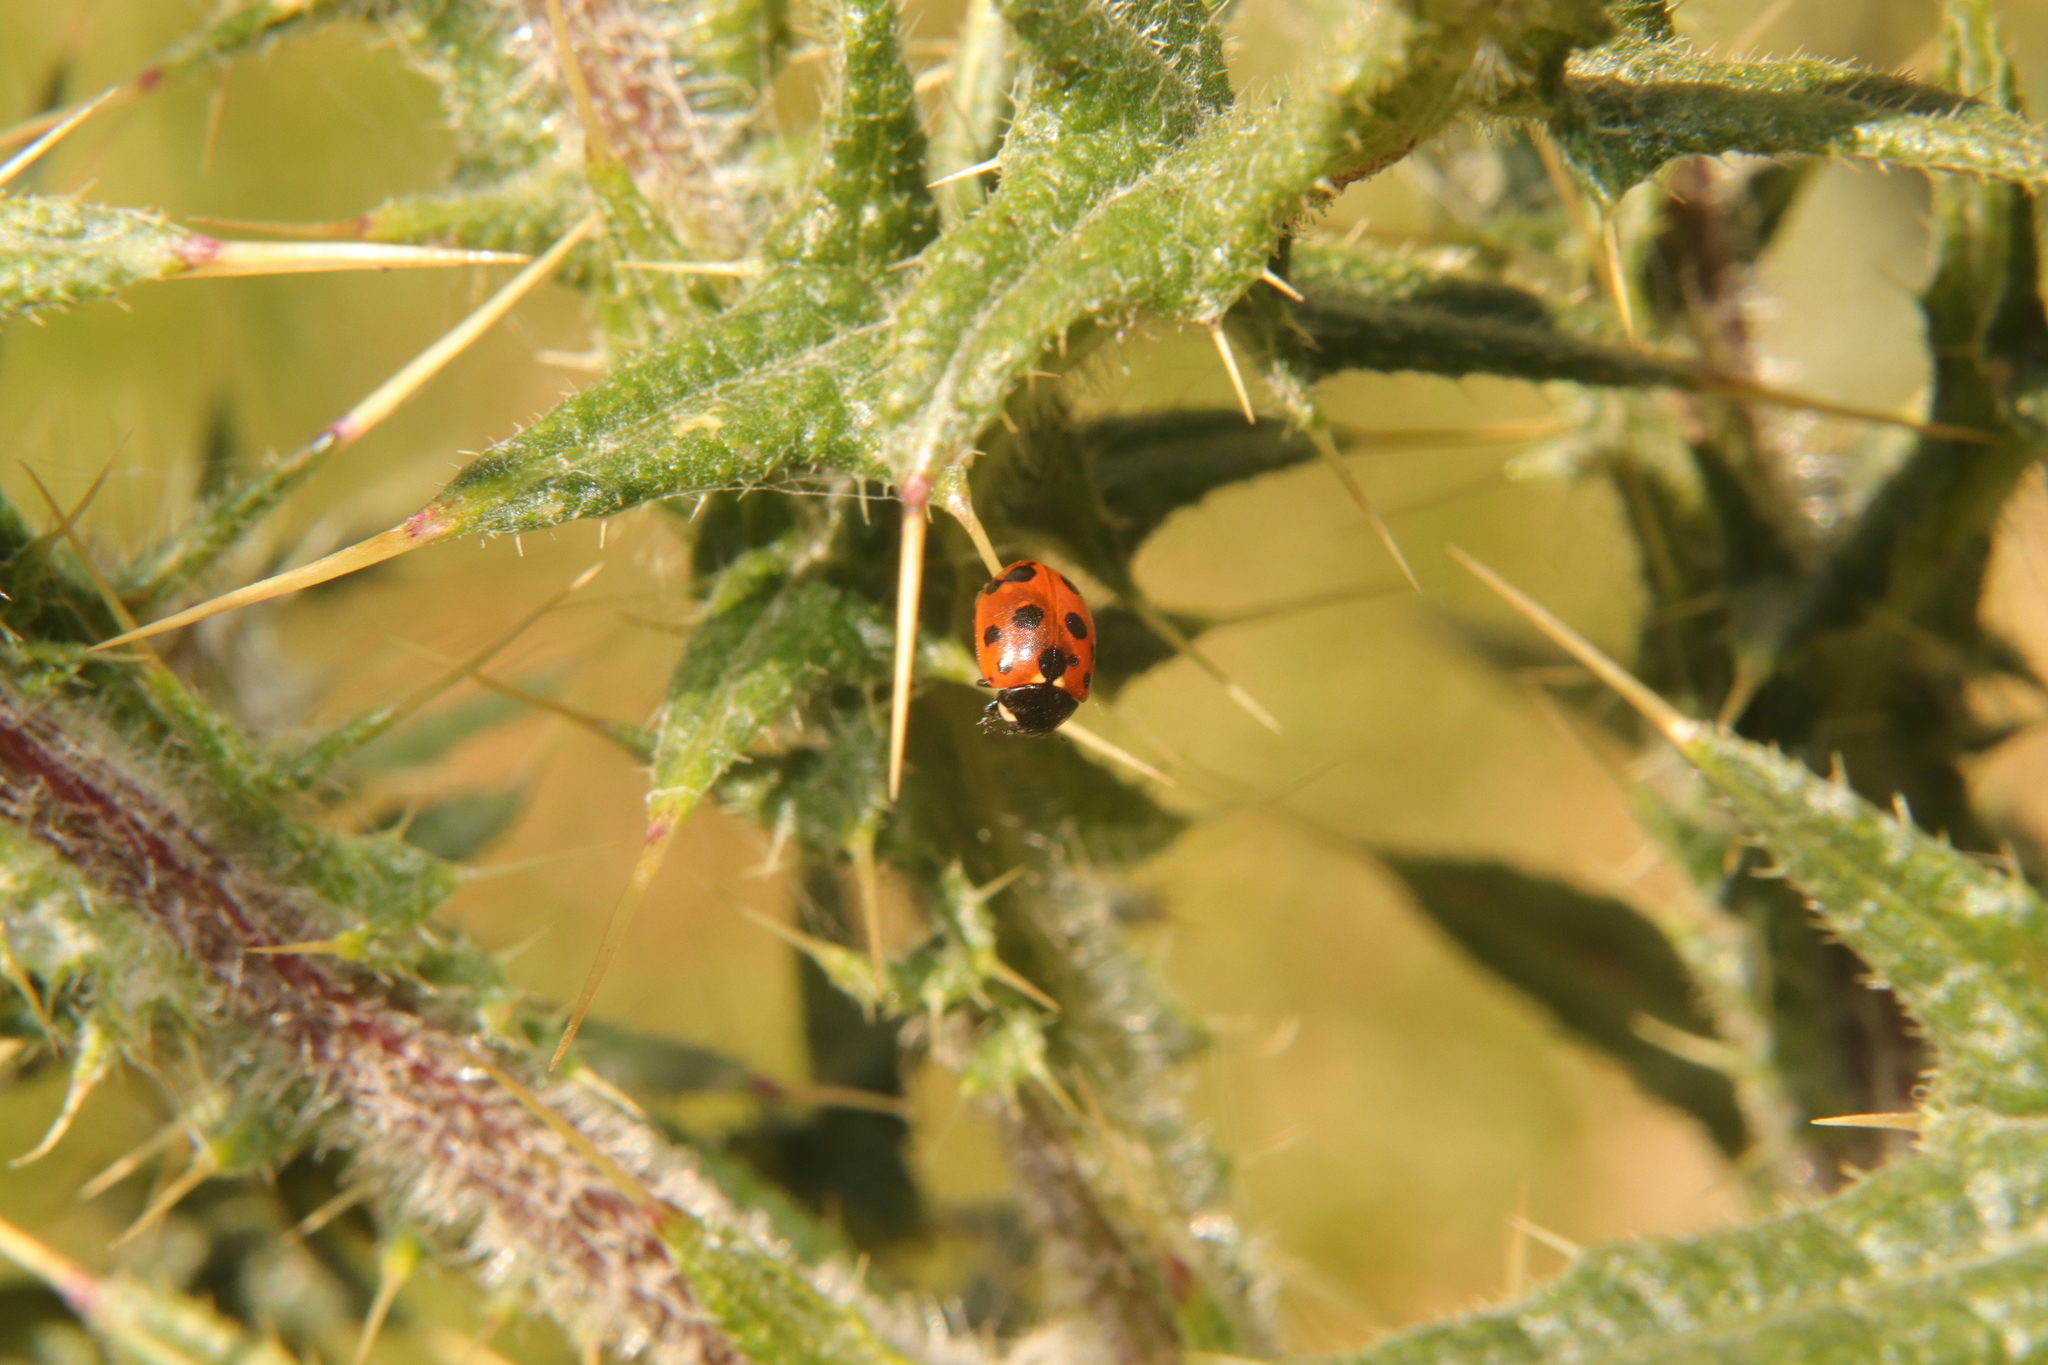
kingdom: Animalia
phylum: Arthropoda
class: Insecta
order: Coleoptera
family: Coccinellidae
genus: Coccinella
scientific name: Coccinella undecimpunctata
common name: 11-spot ladybird
